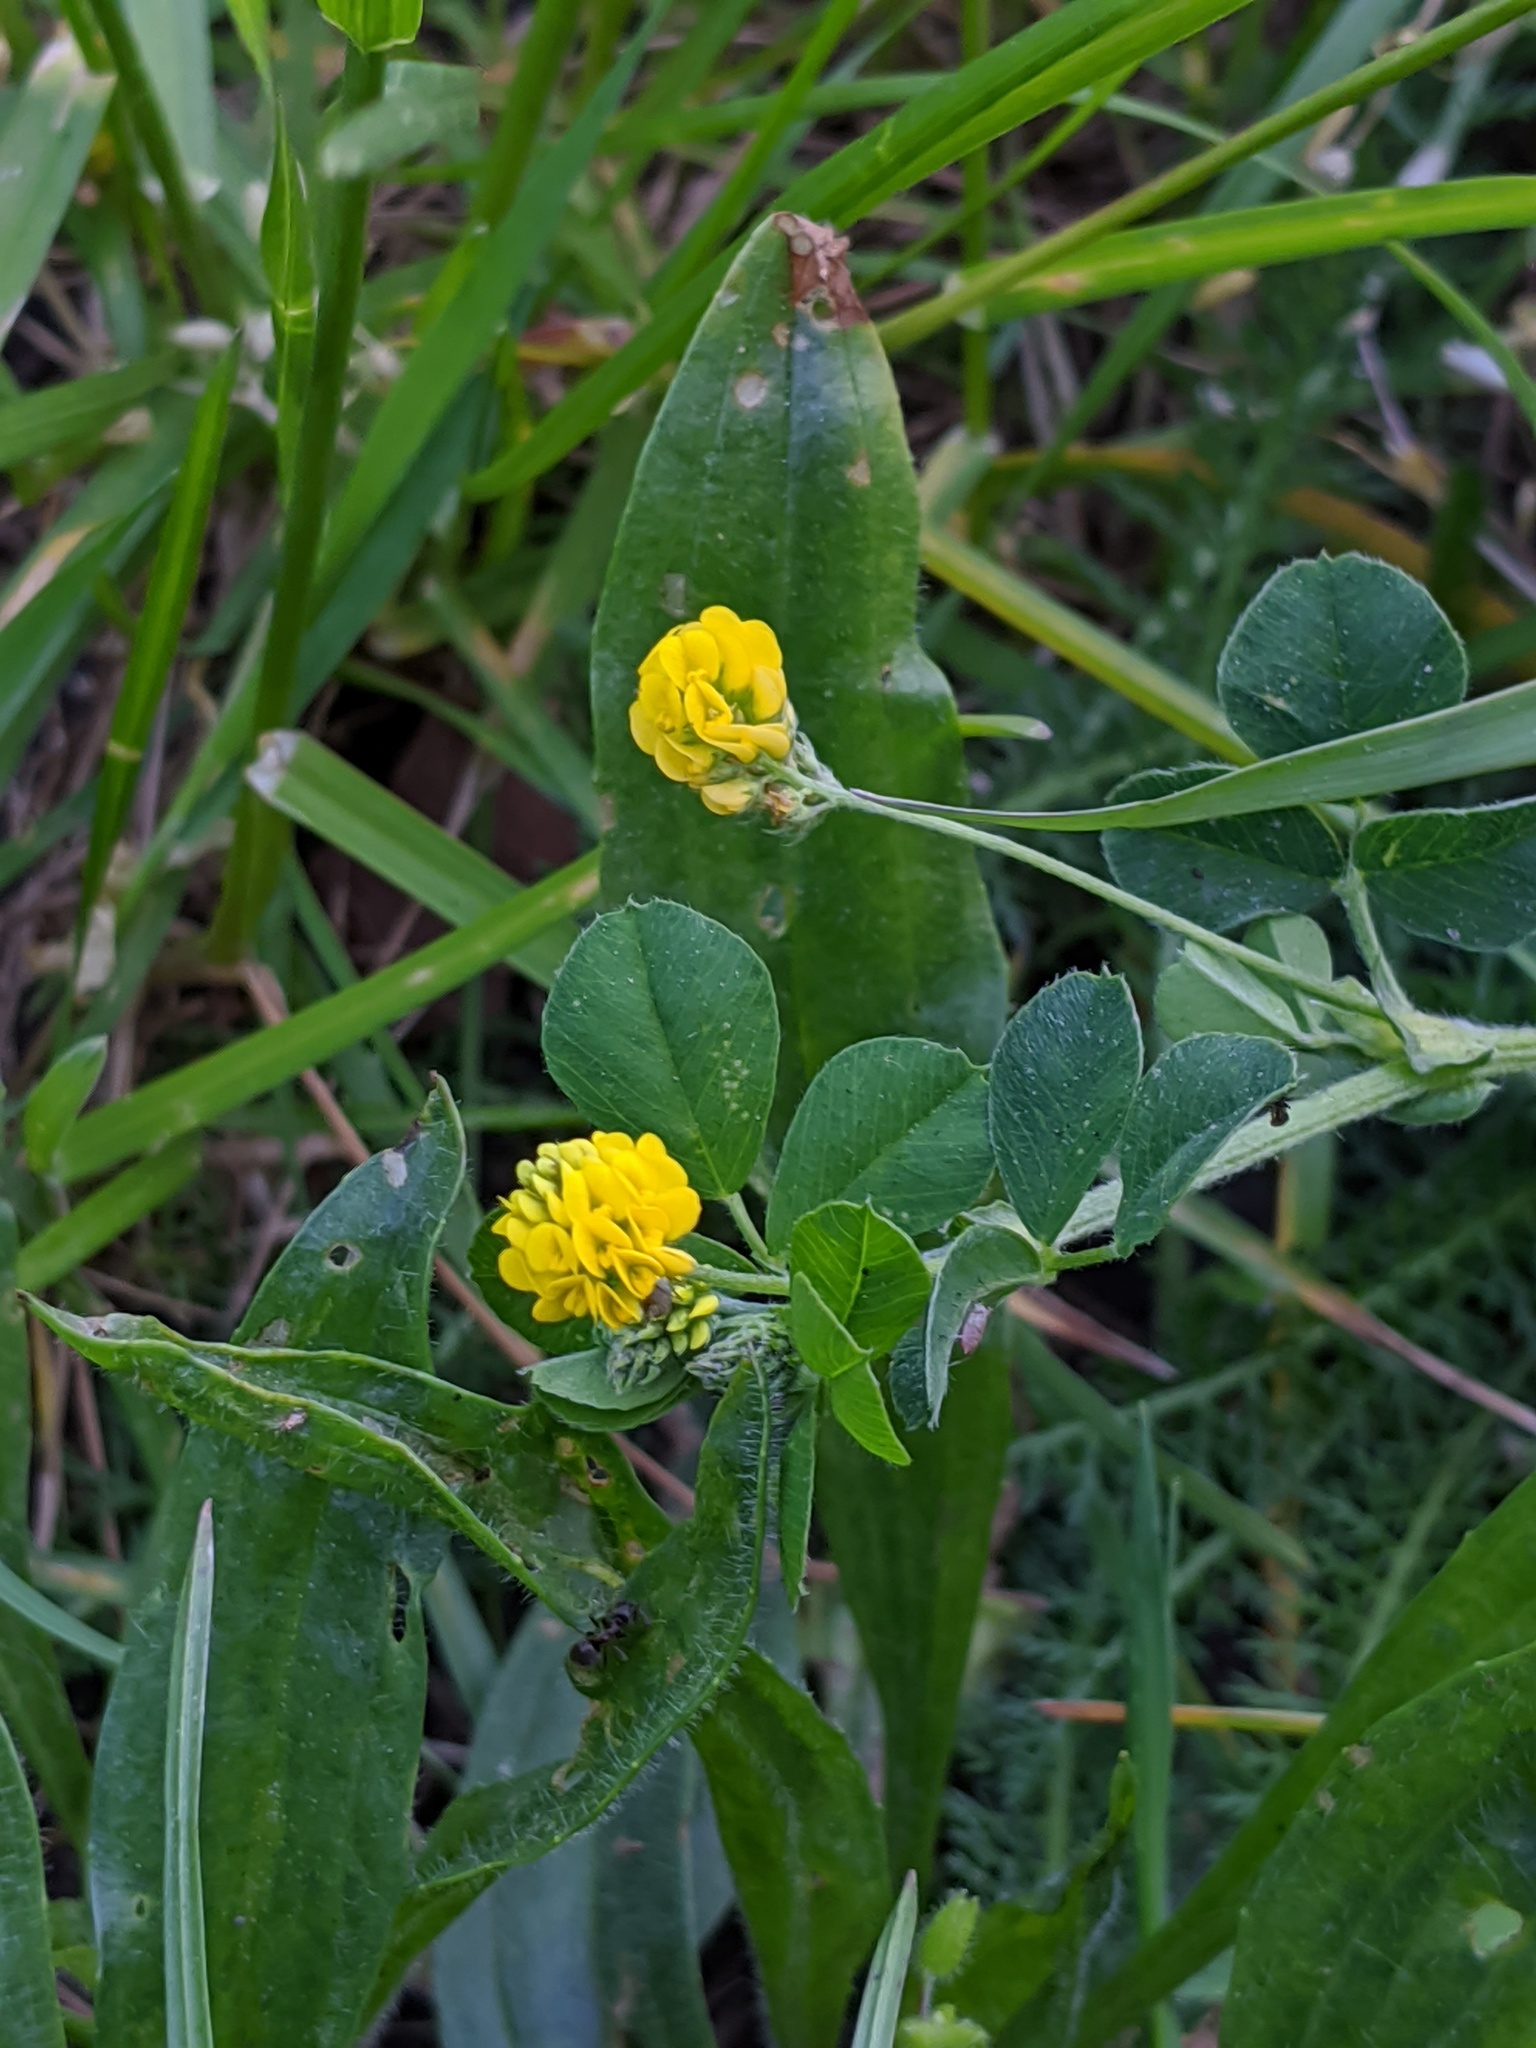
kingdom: Plantae
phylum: Tracheophyta
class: Magnoliopsida
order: Fabales
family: Fabaceae
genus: Medicago
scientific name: Medicago lupulina
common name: Black medick
